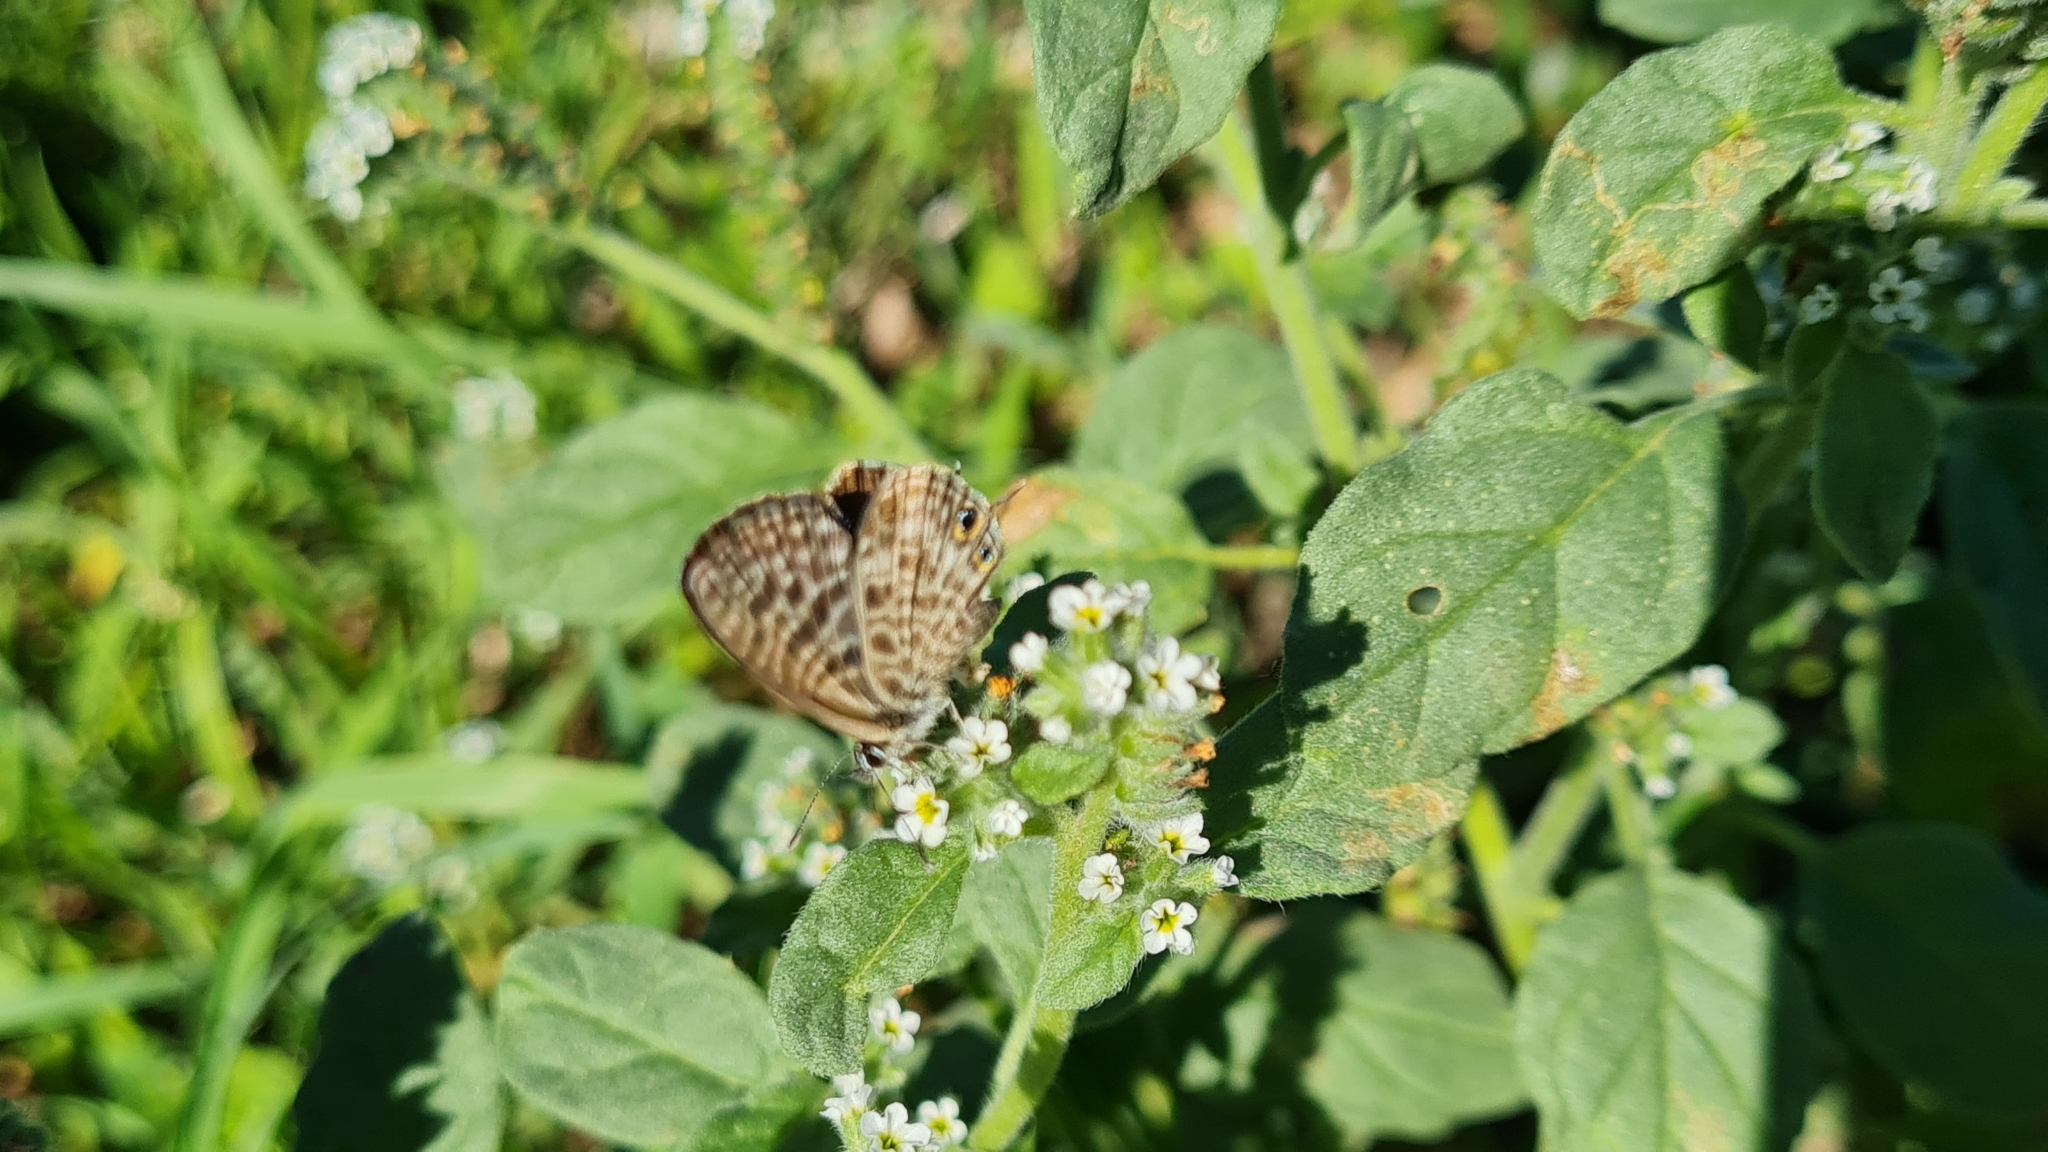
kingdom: Animalia
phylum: Arthropoda
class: Insecta
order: Lepidoptera
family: Lycaenidae
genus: Leptotes
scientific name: Leptotes pirithous
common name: Lang's short-tailed blue
